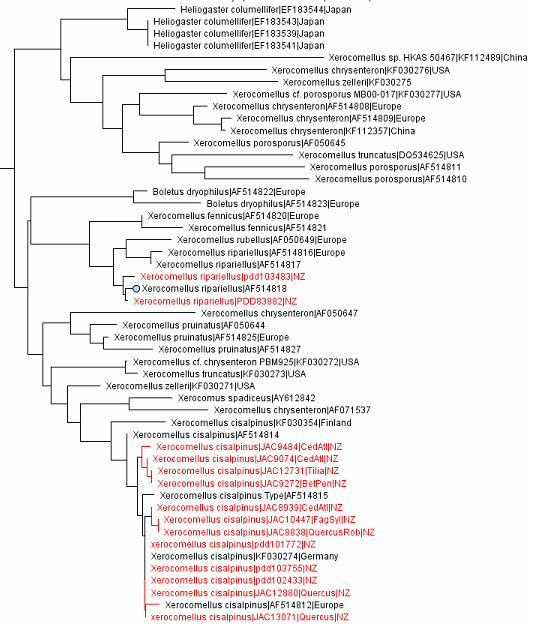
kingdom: Fungi
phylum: Basidiomycota
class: Agaricomycetes
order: Boletales
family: Boletaceae
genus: Xerocomellus
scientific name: Xerocomellus cisalpinus
